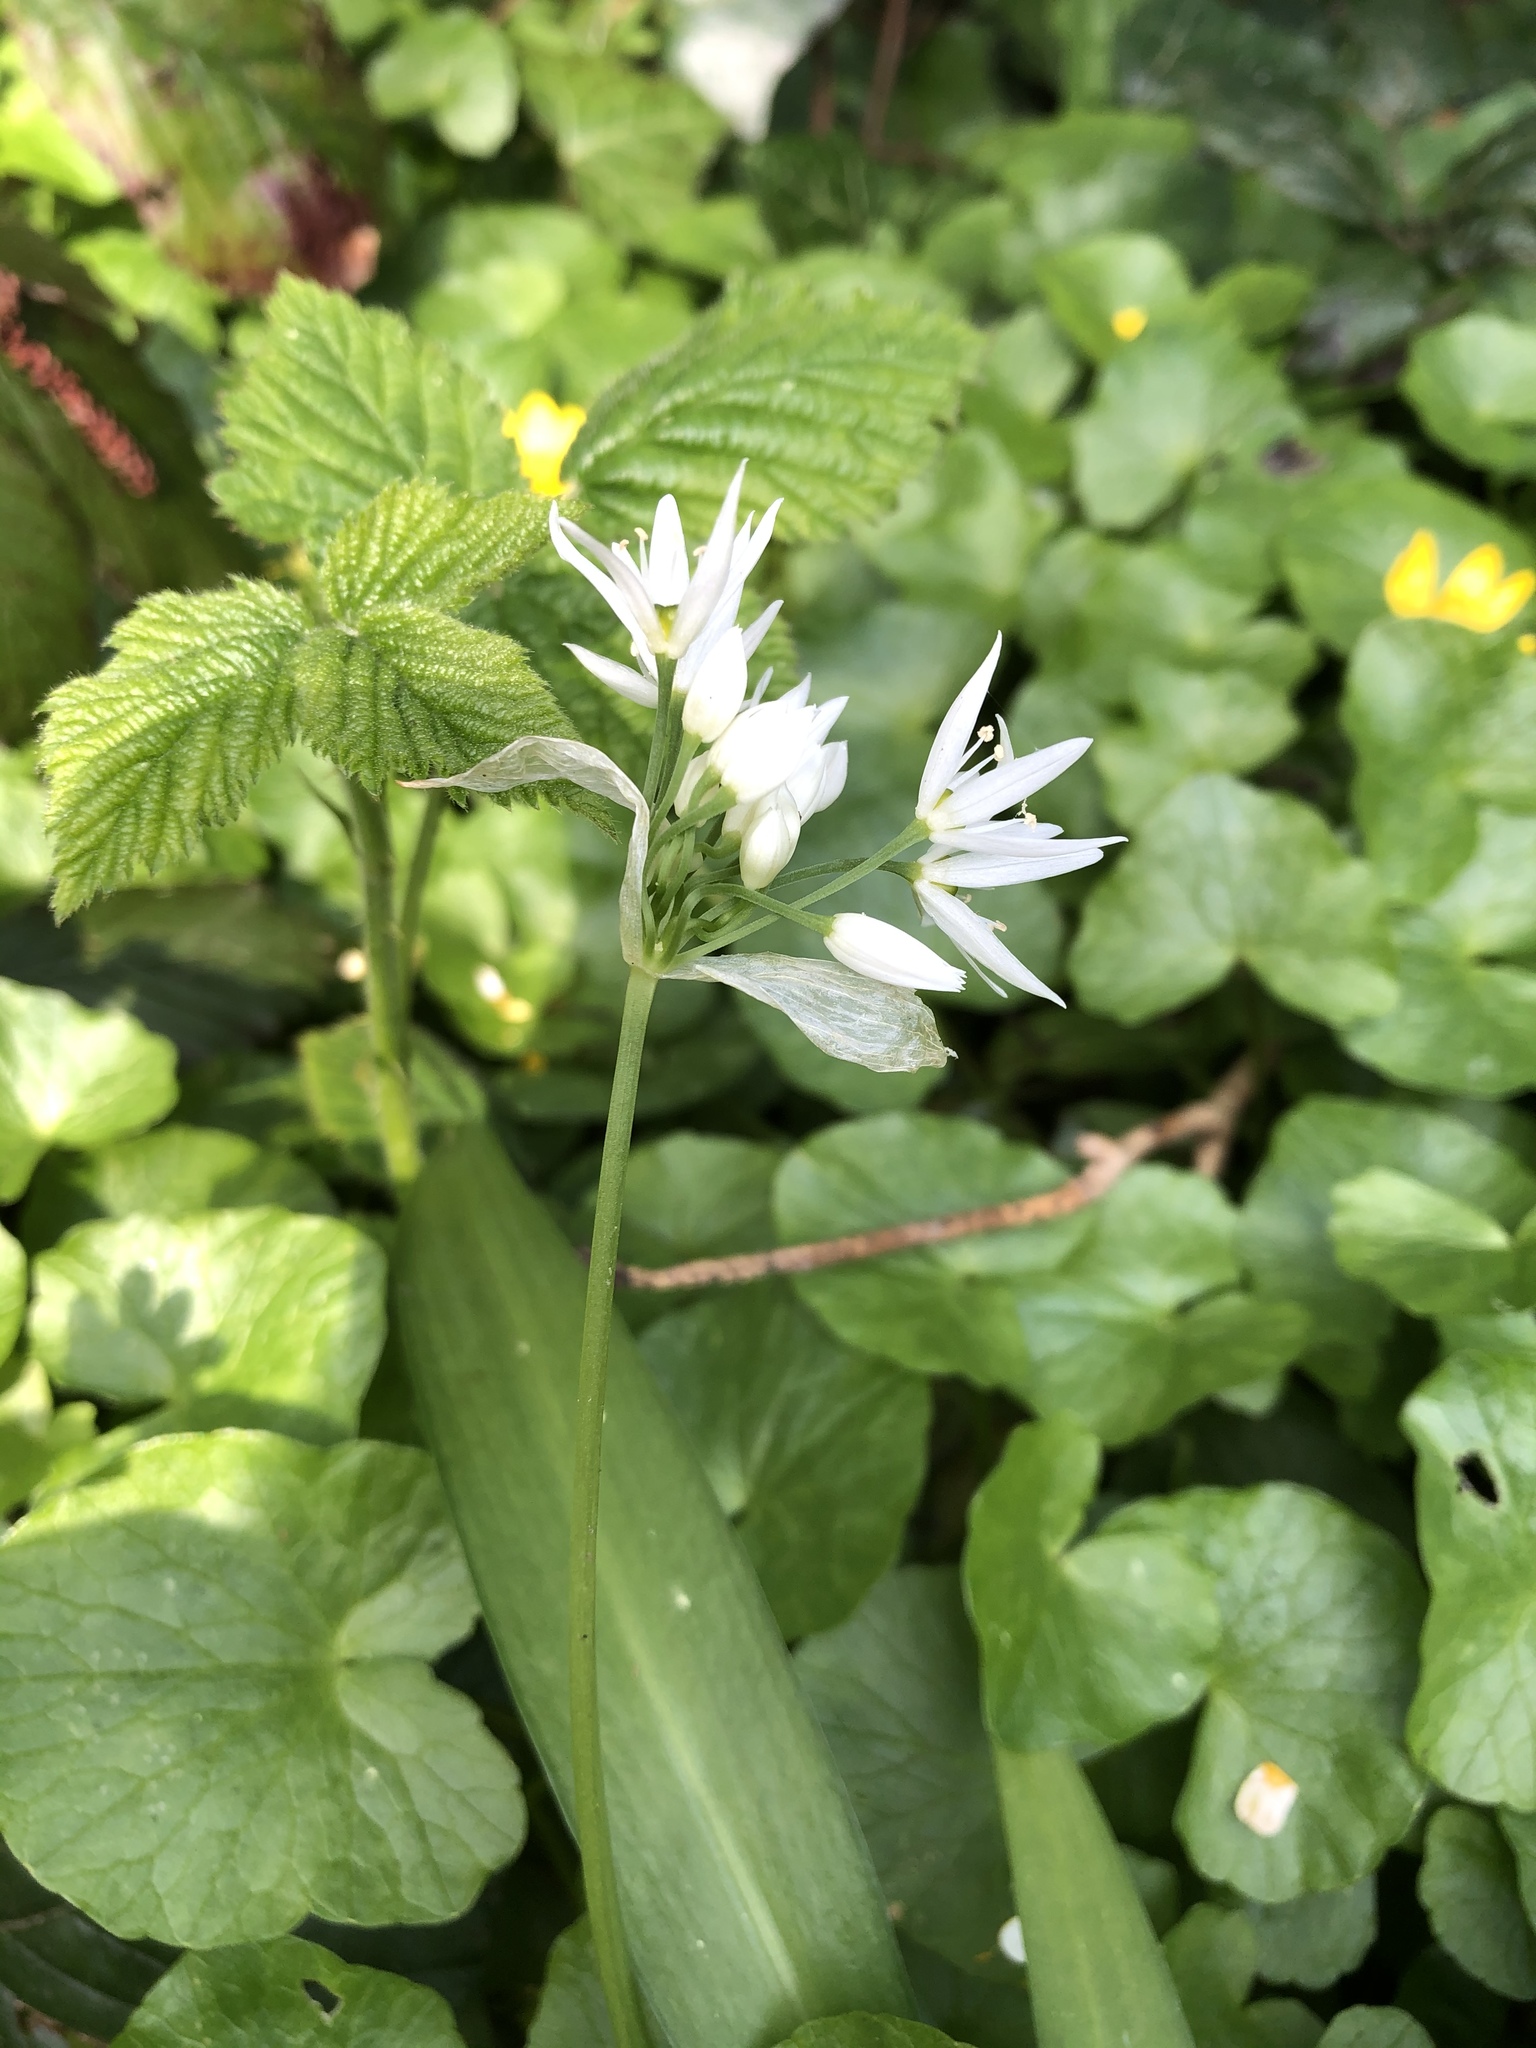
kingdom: Plantae
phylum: Tracheophyta
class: Liliopsida
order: Asparagales
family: Amaryllidaceae
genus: Allium
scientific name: Allium ursinum
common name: Ramsons
